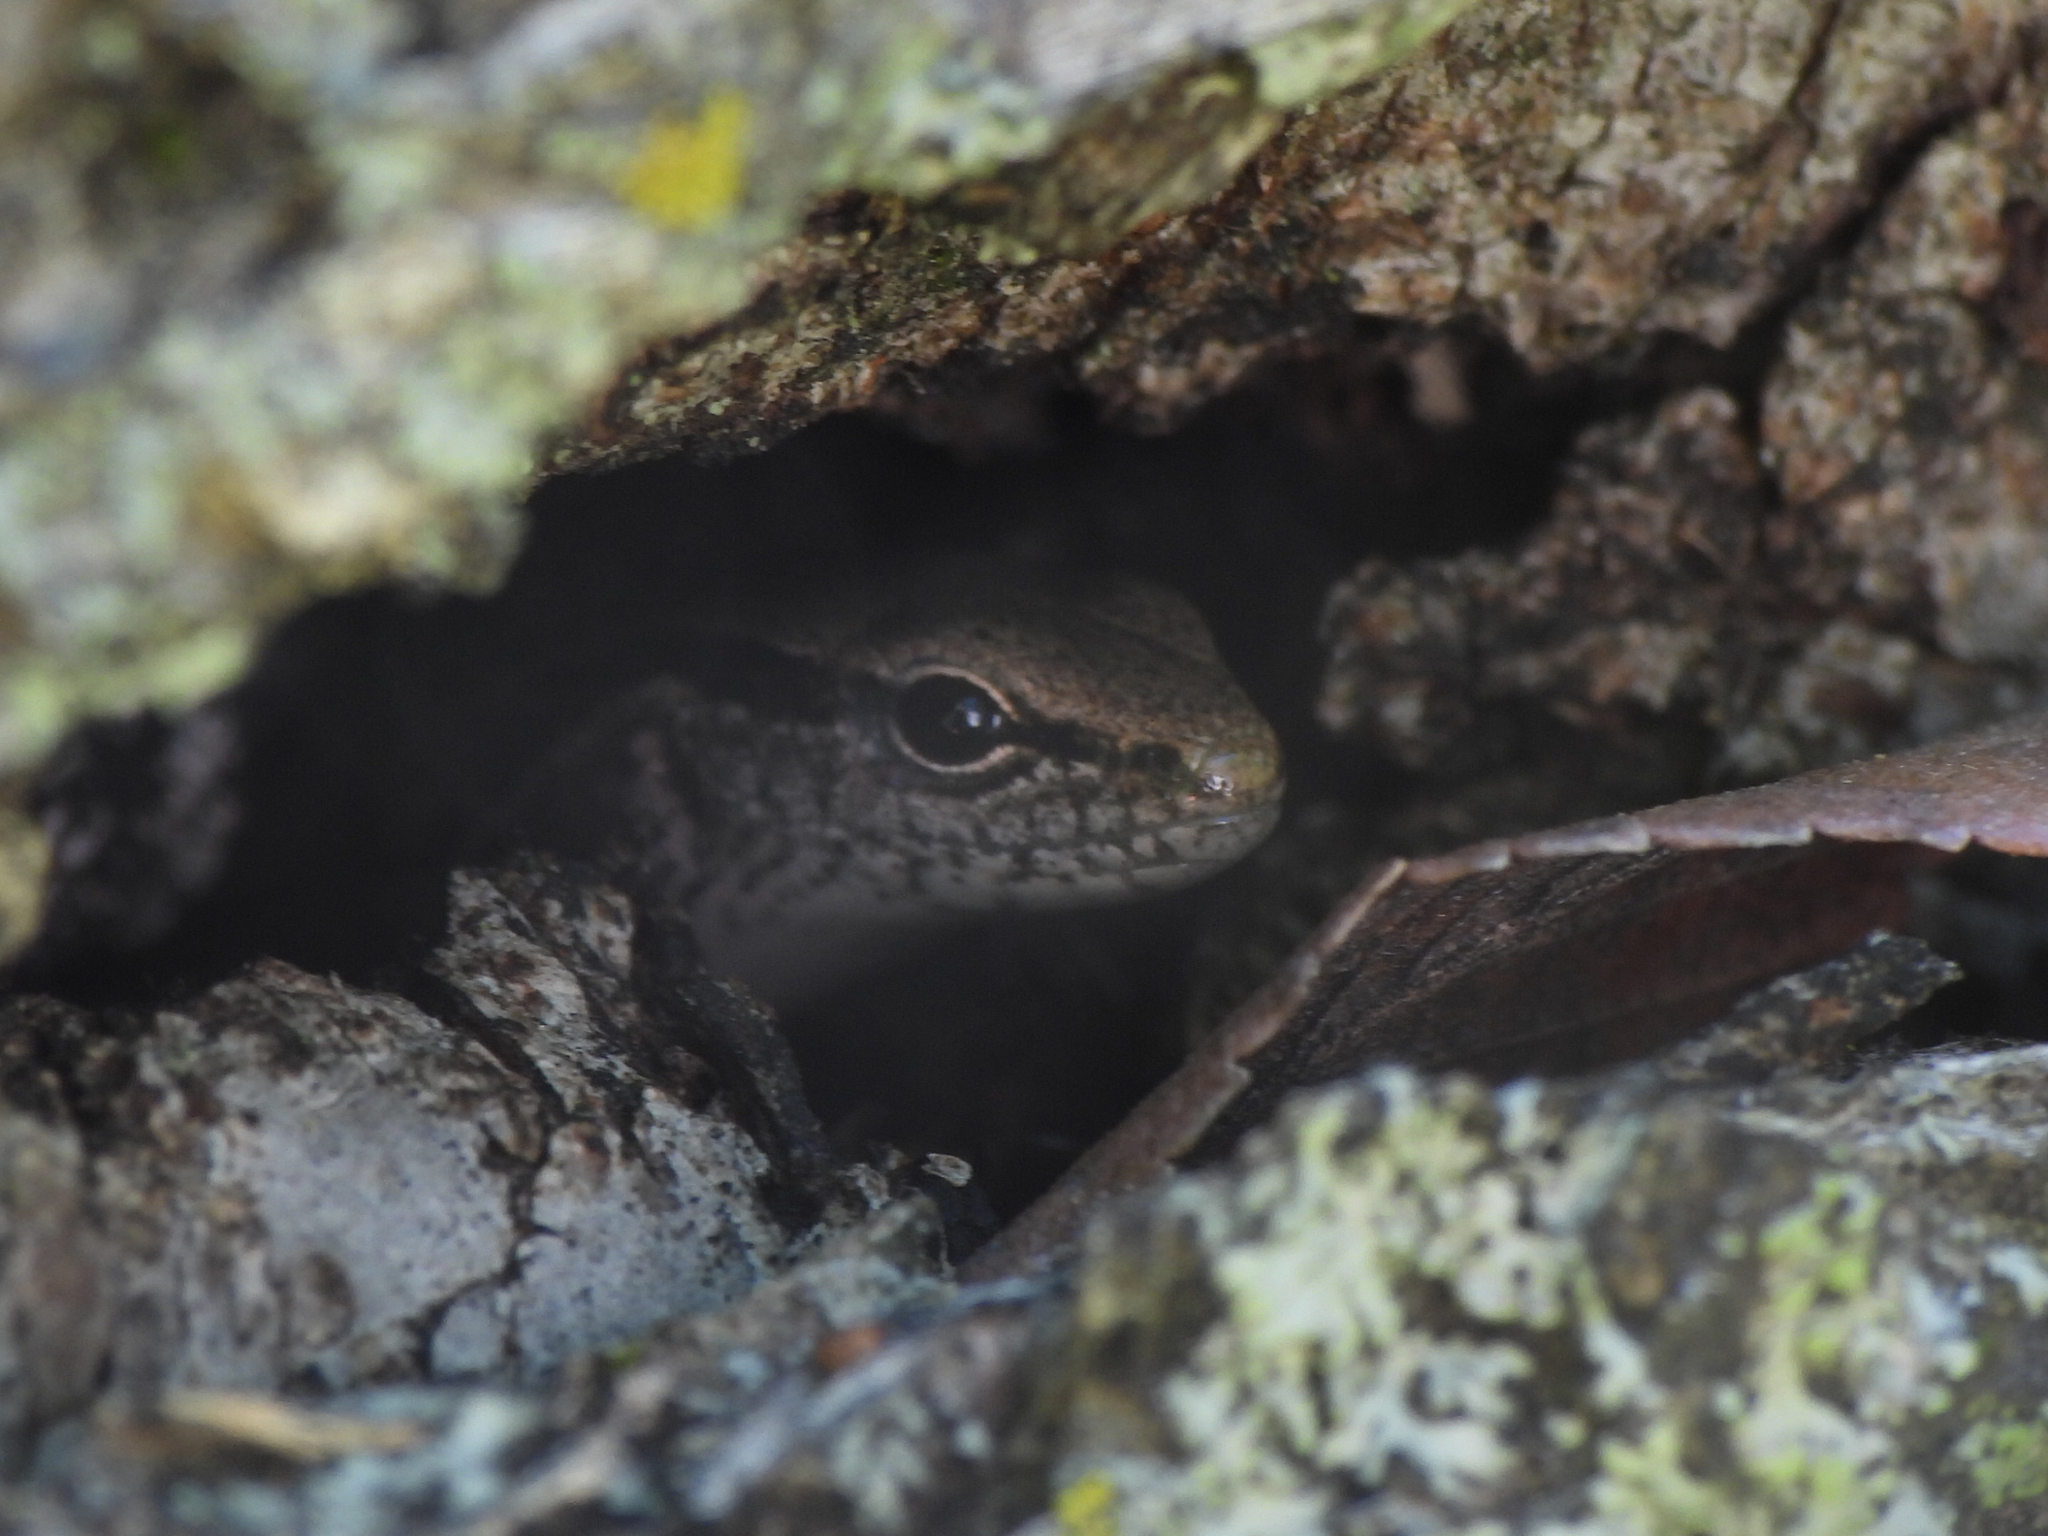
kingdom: Animalia
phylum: Chordata
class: Squamata
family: Scincidae
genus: Scincella
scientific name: Scincella lateralis
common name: Ground skink
